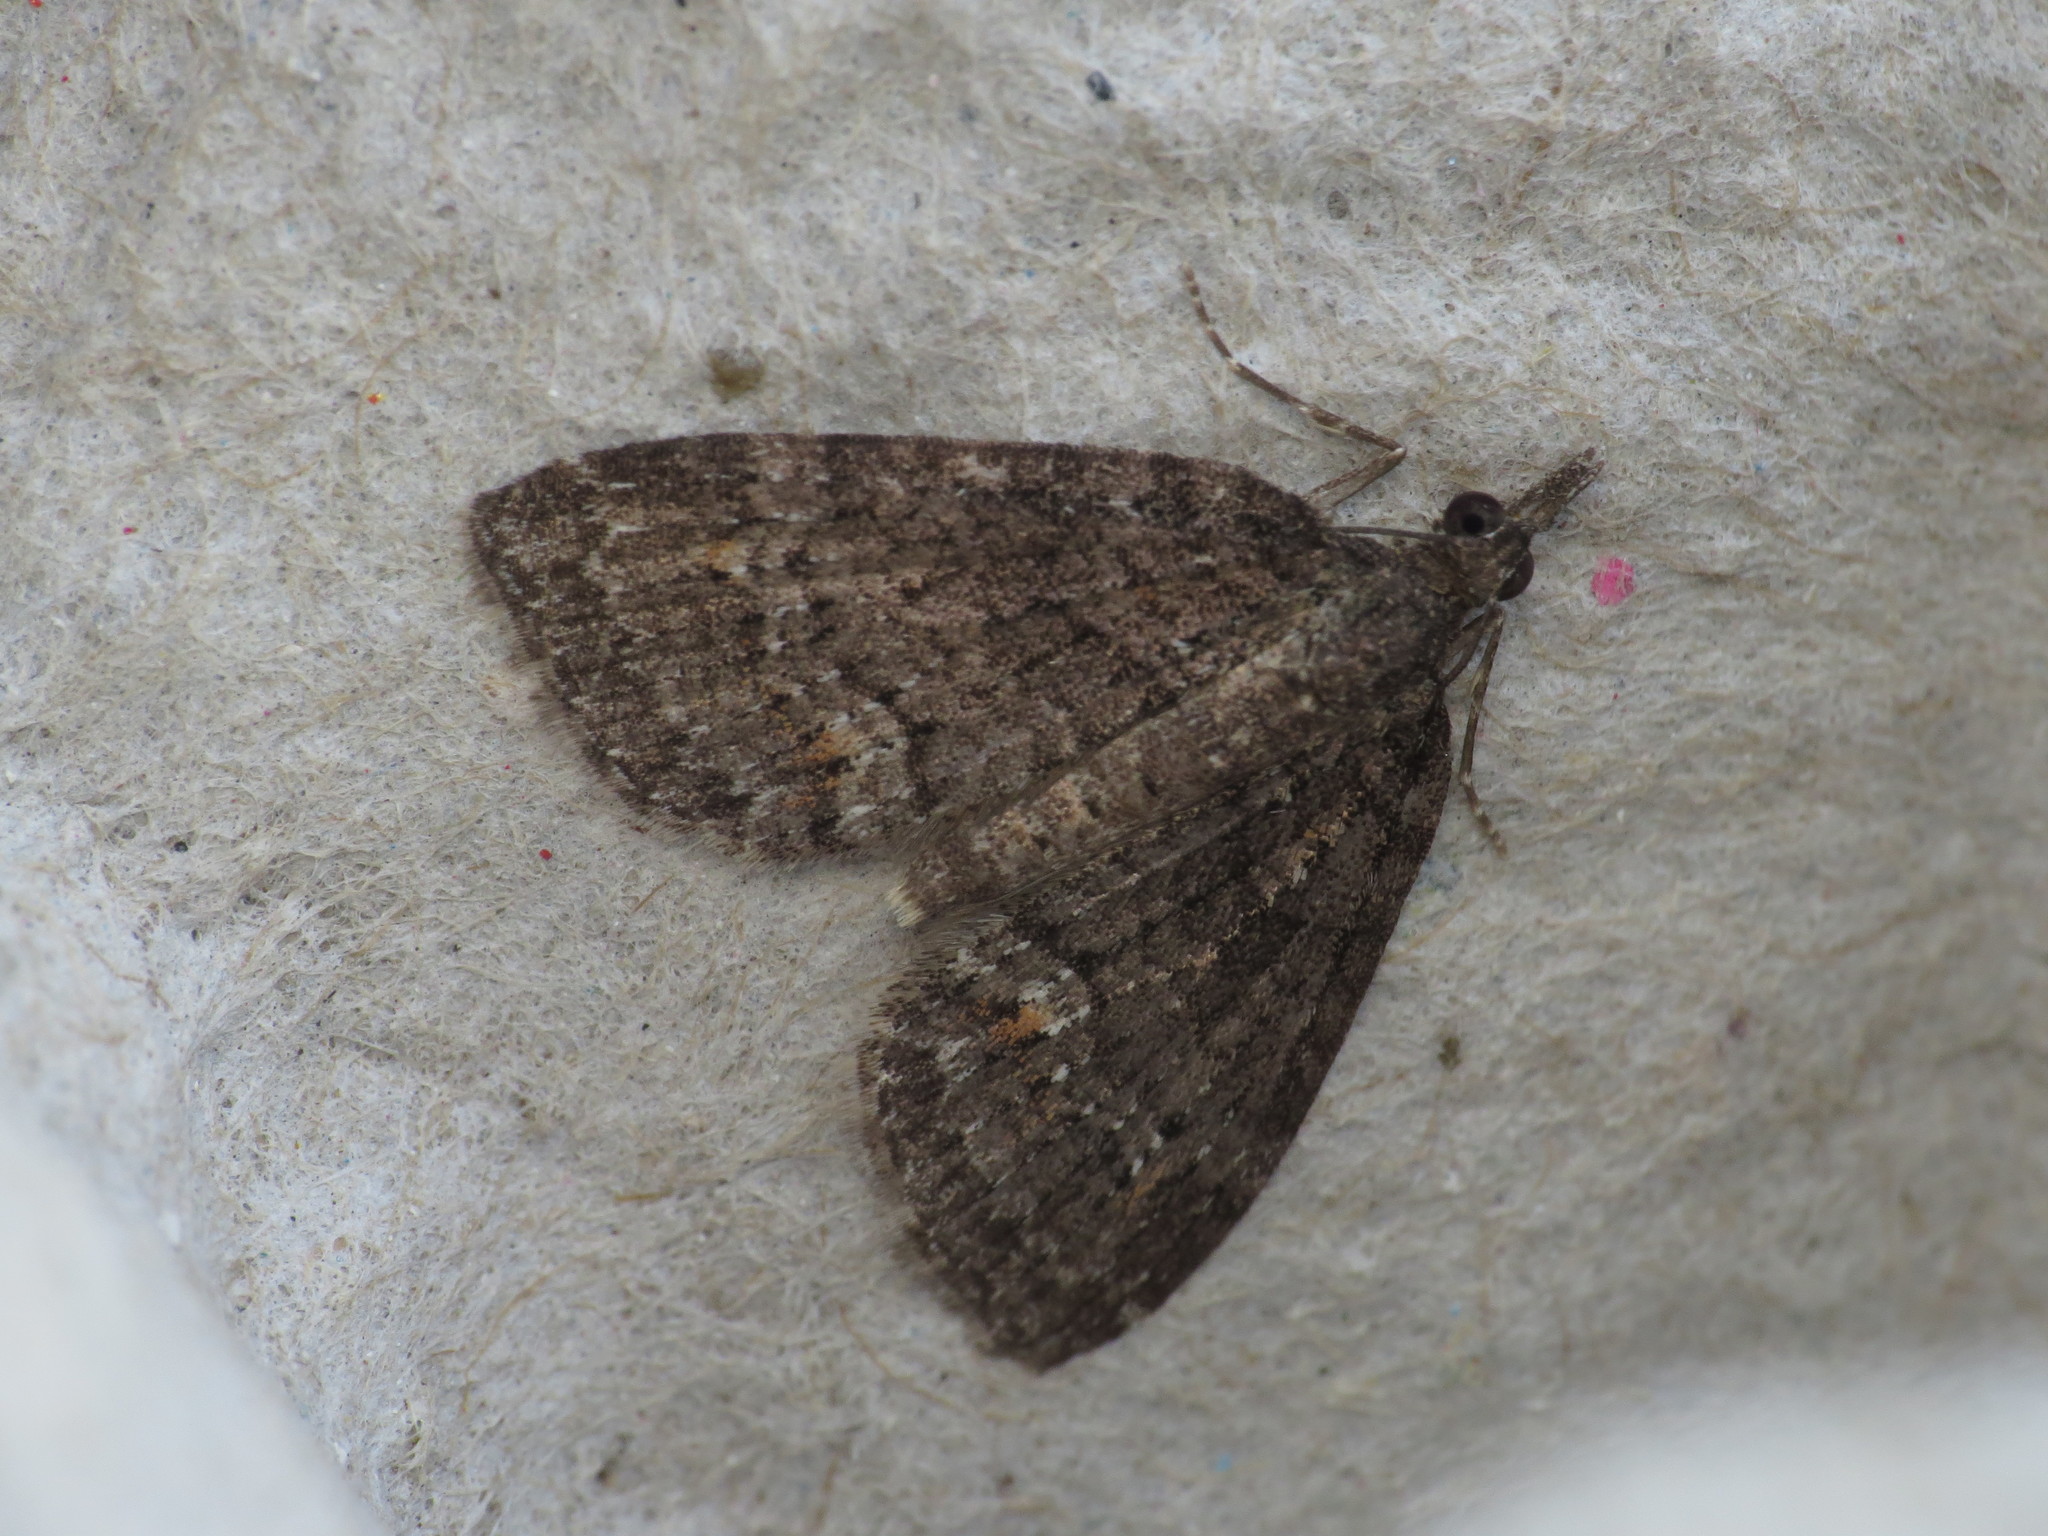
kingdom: Animalia
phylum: Arthropoda
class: Insecta
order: Lepidoptera
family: Geometridae
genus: Microdes
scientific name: Microdes squamulata
